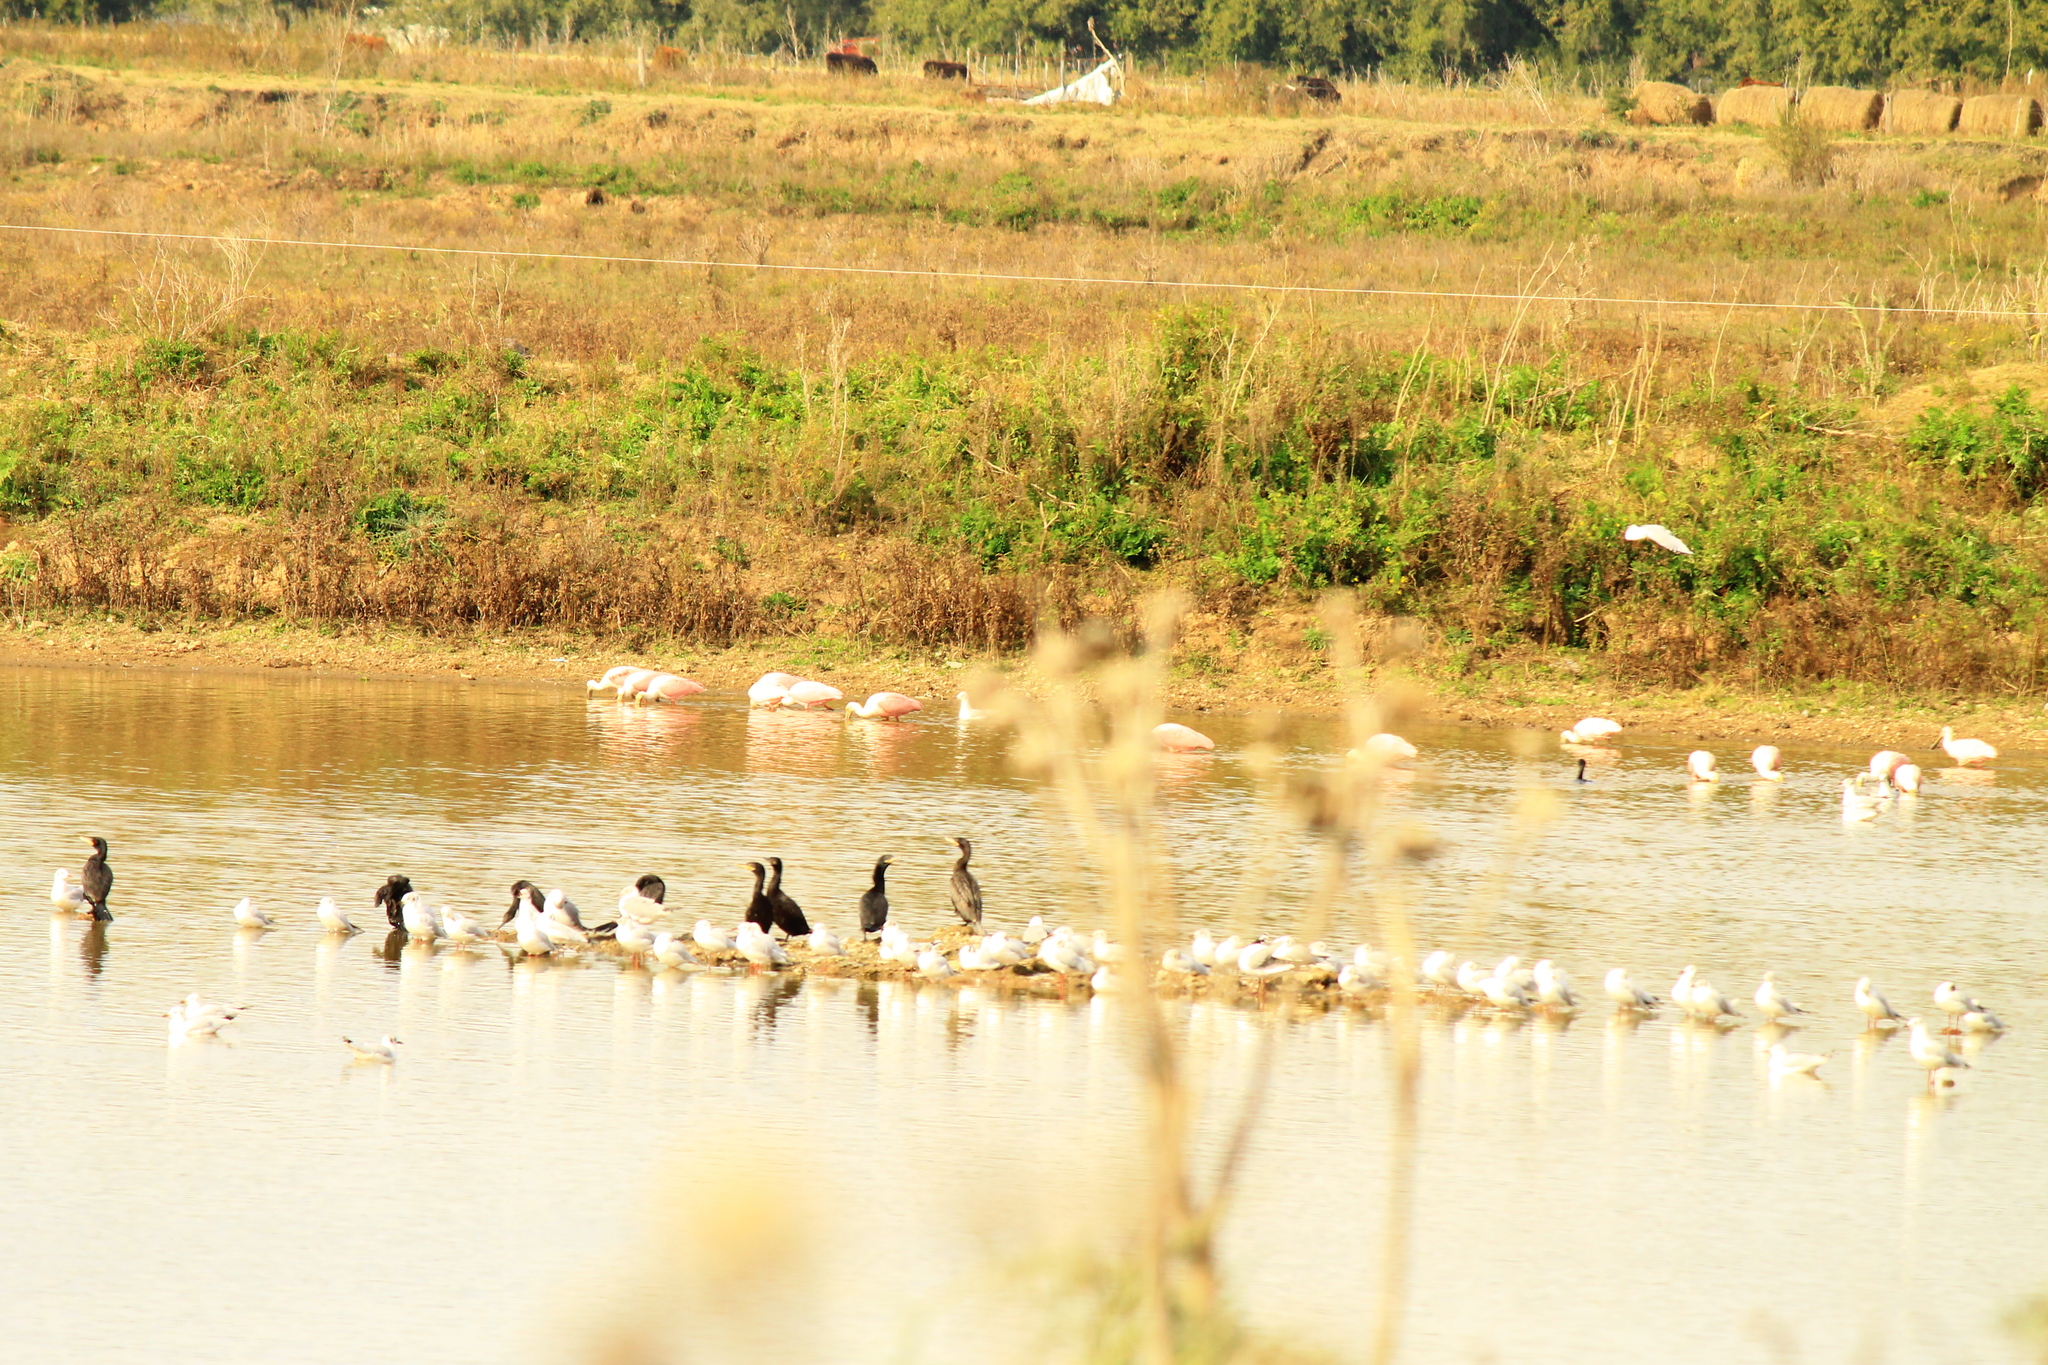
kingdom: Animalia
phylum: Chordata
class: Aves
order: Suliformes
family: Phalacrocoracidae
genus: Phalacrocorax
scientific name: Phalacrocorax brasilianus
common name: Neotropic cormorant
